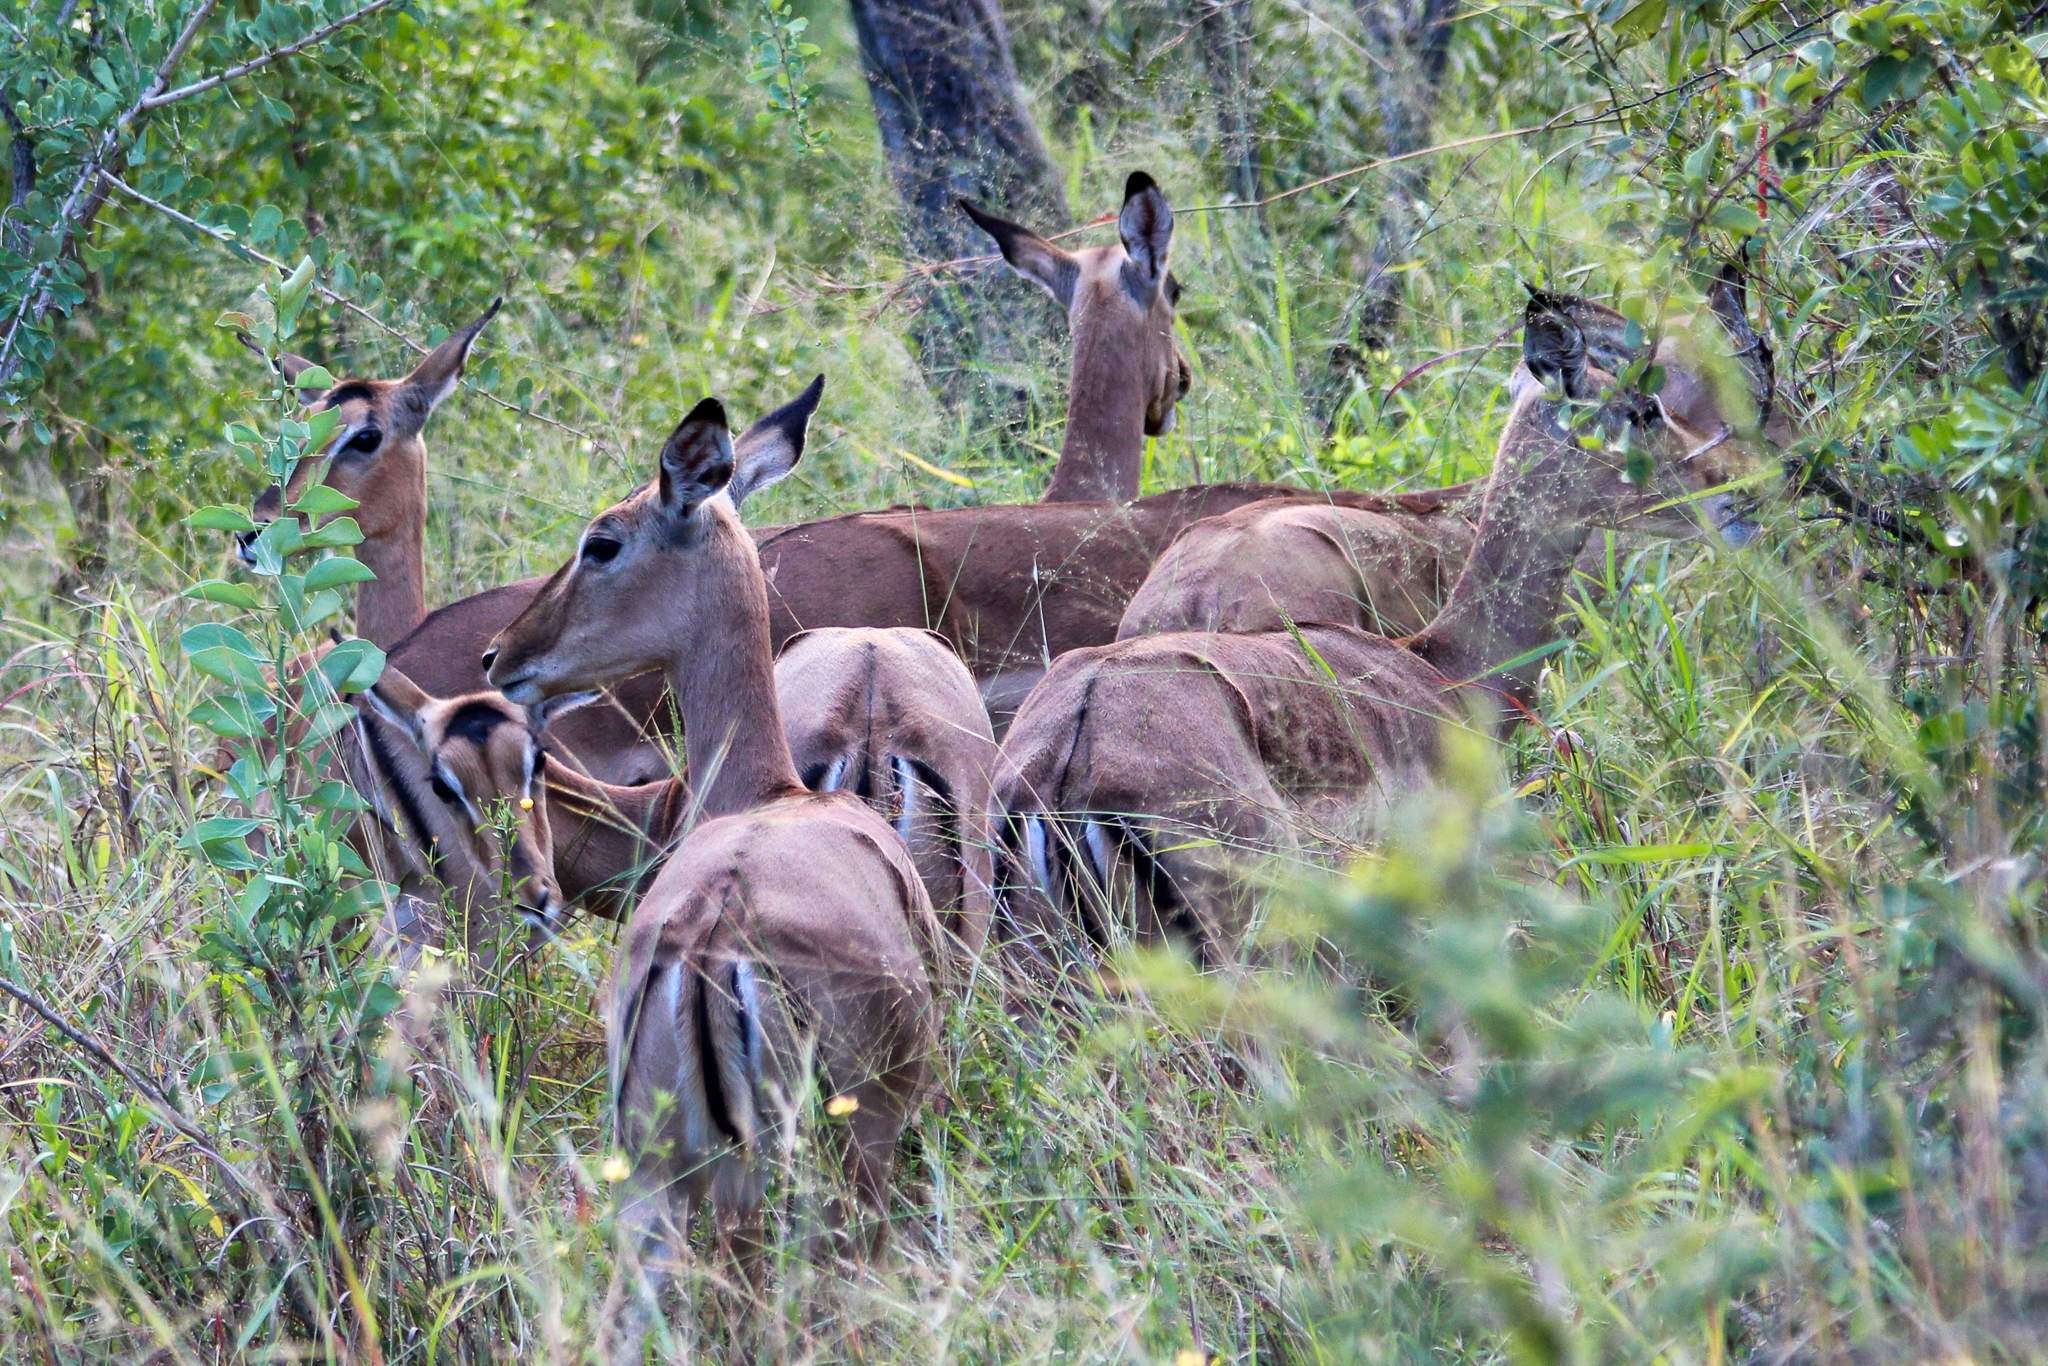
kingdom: Animalia
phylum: Chordata
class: Mammalia
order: Artiodactyla
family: Bovidae
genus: Aepyceros
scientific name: Aepyceros melampus
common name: Impala
